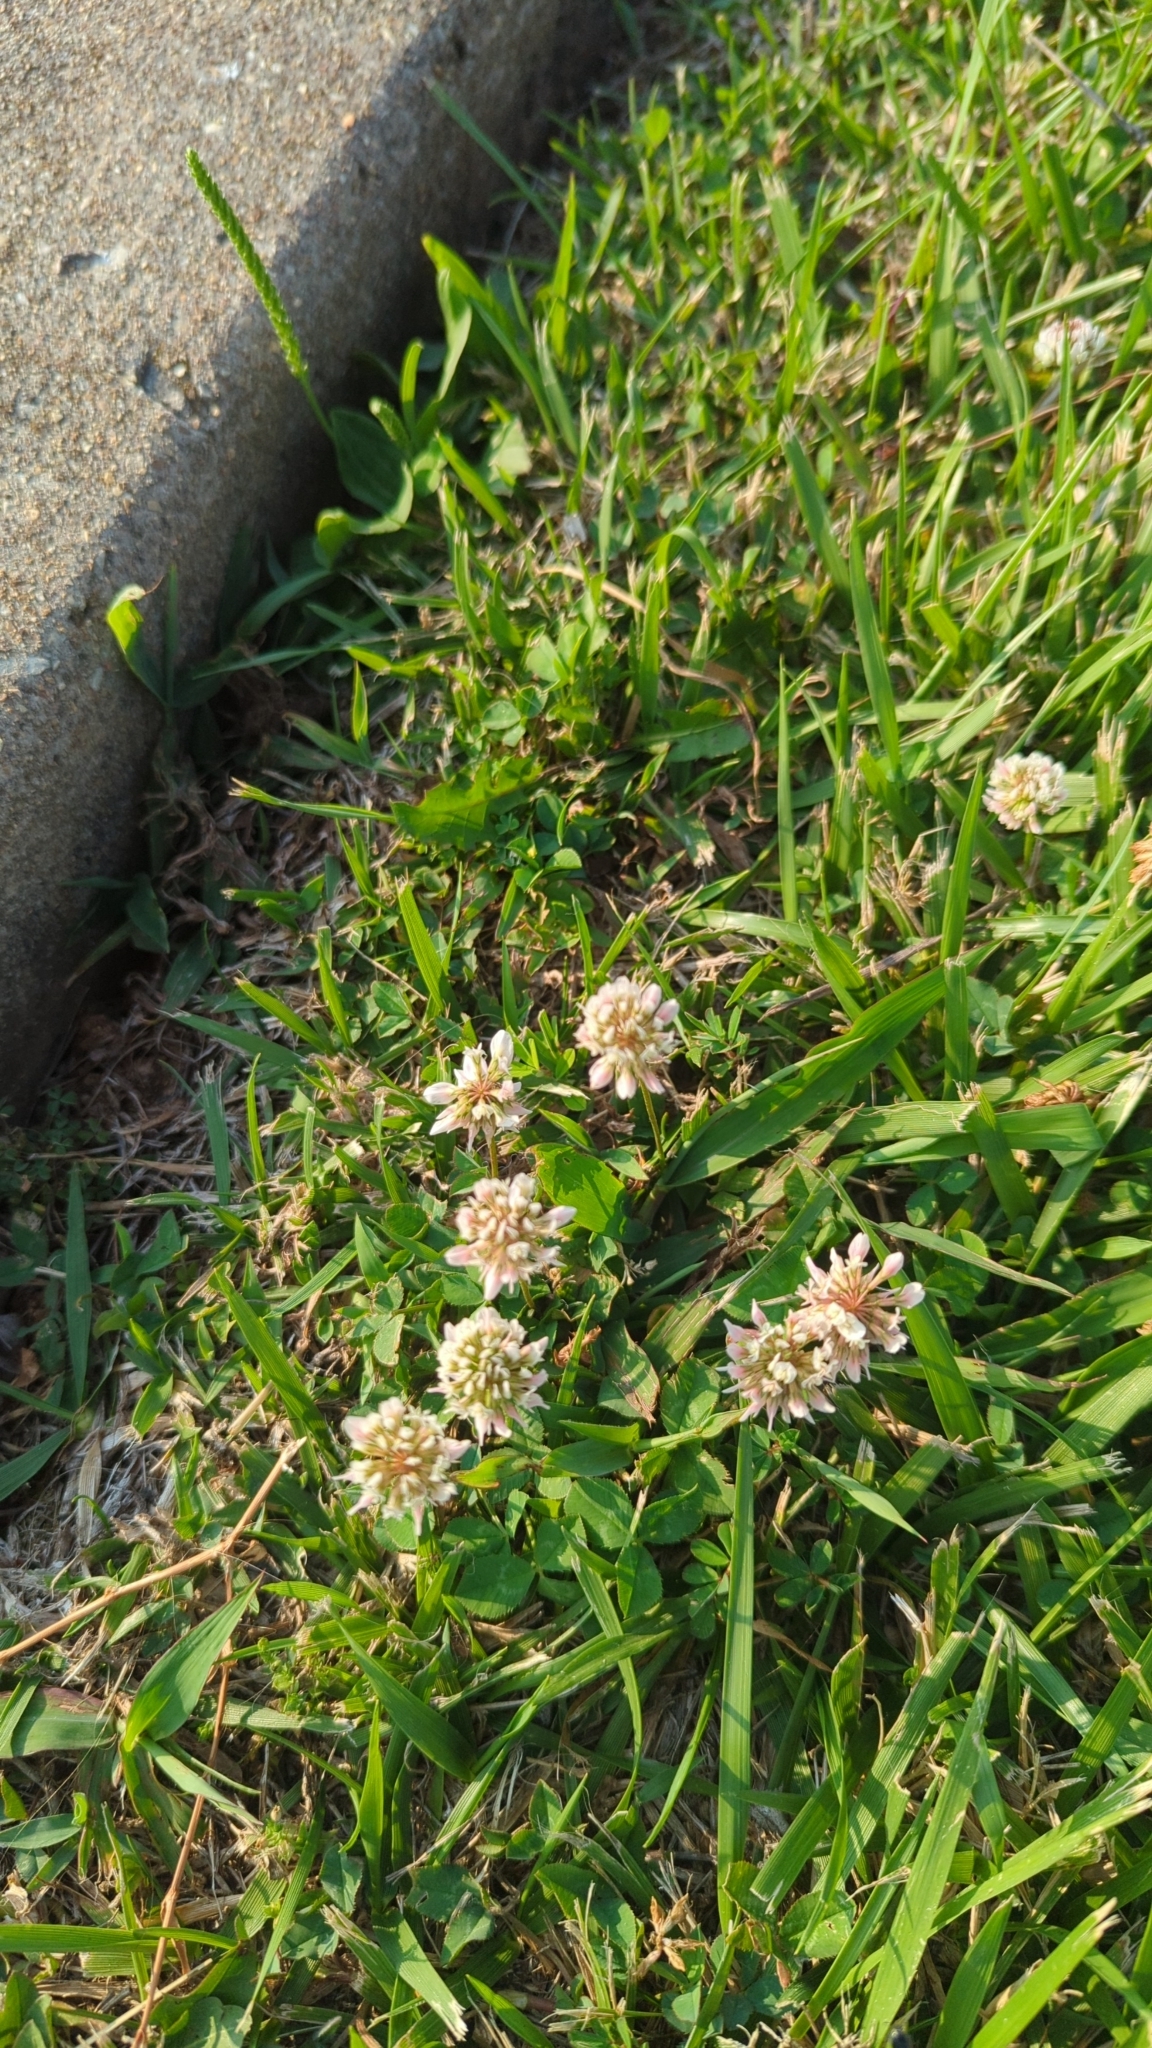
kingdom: Plantae
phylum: Tracheophyta
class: Magnoliopsida
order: Fabales
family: Fabaceae
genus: Trifolium
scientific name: Trifolium repens
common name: White clover
